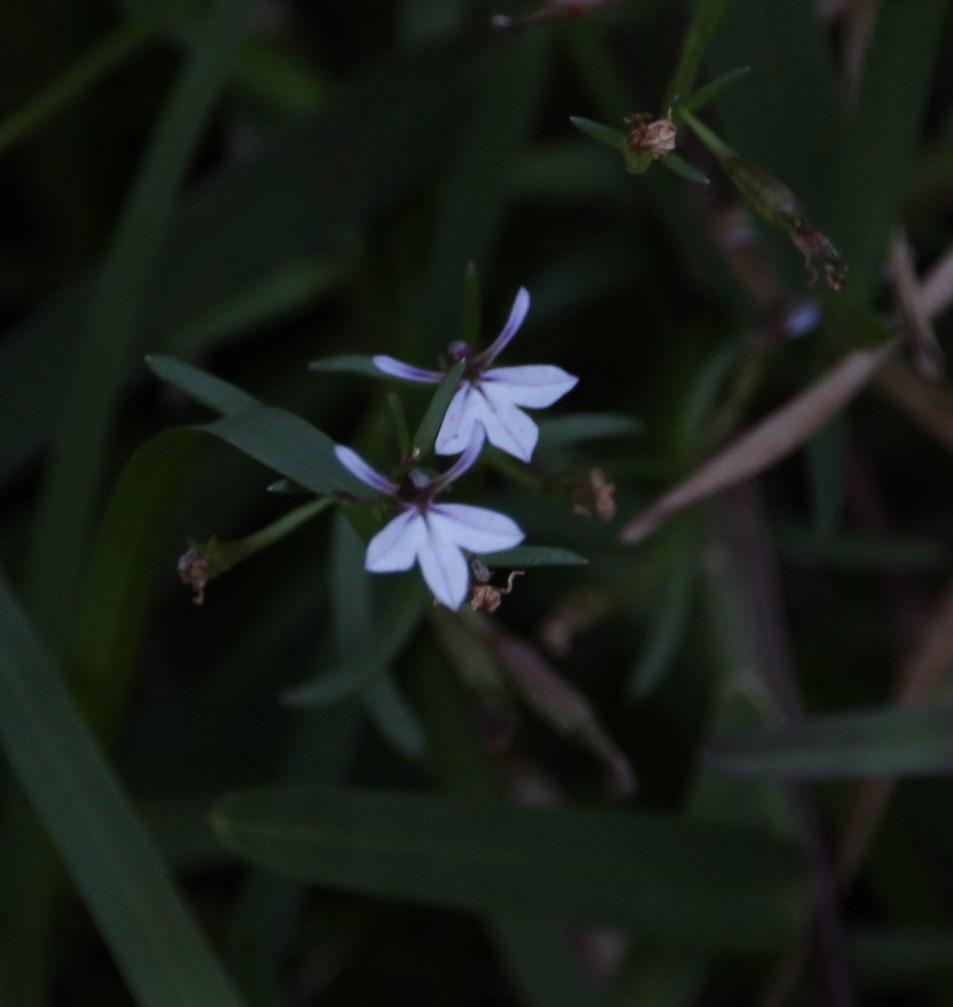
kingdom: Plantae
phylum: Tracheophyta
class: Magnoliopsida
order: Asterales
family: Campanulaceae
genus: Lobelia
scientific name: Lobelia anceps
